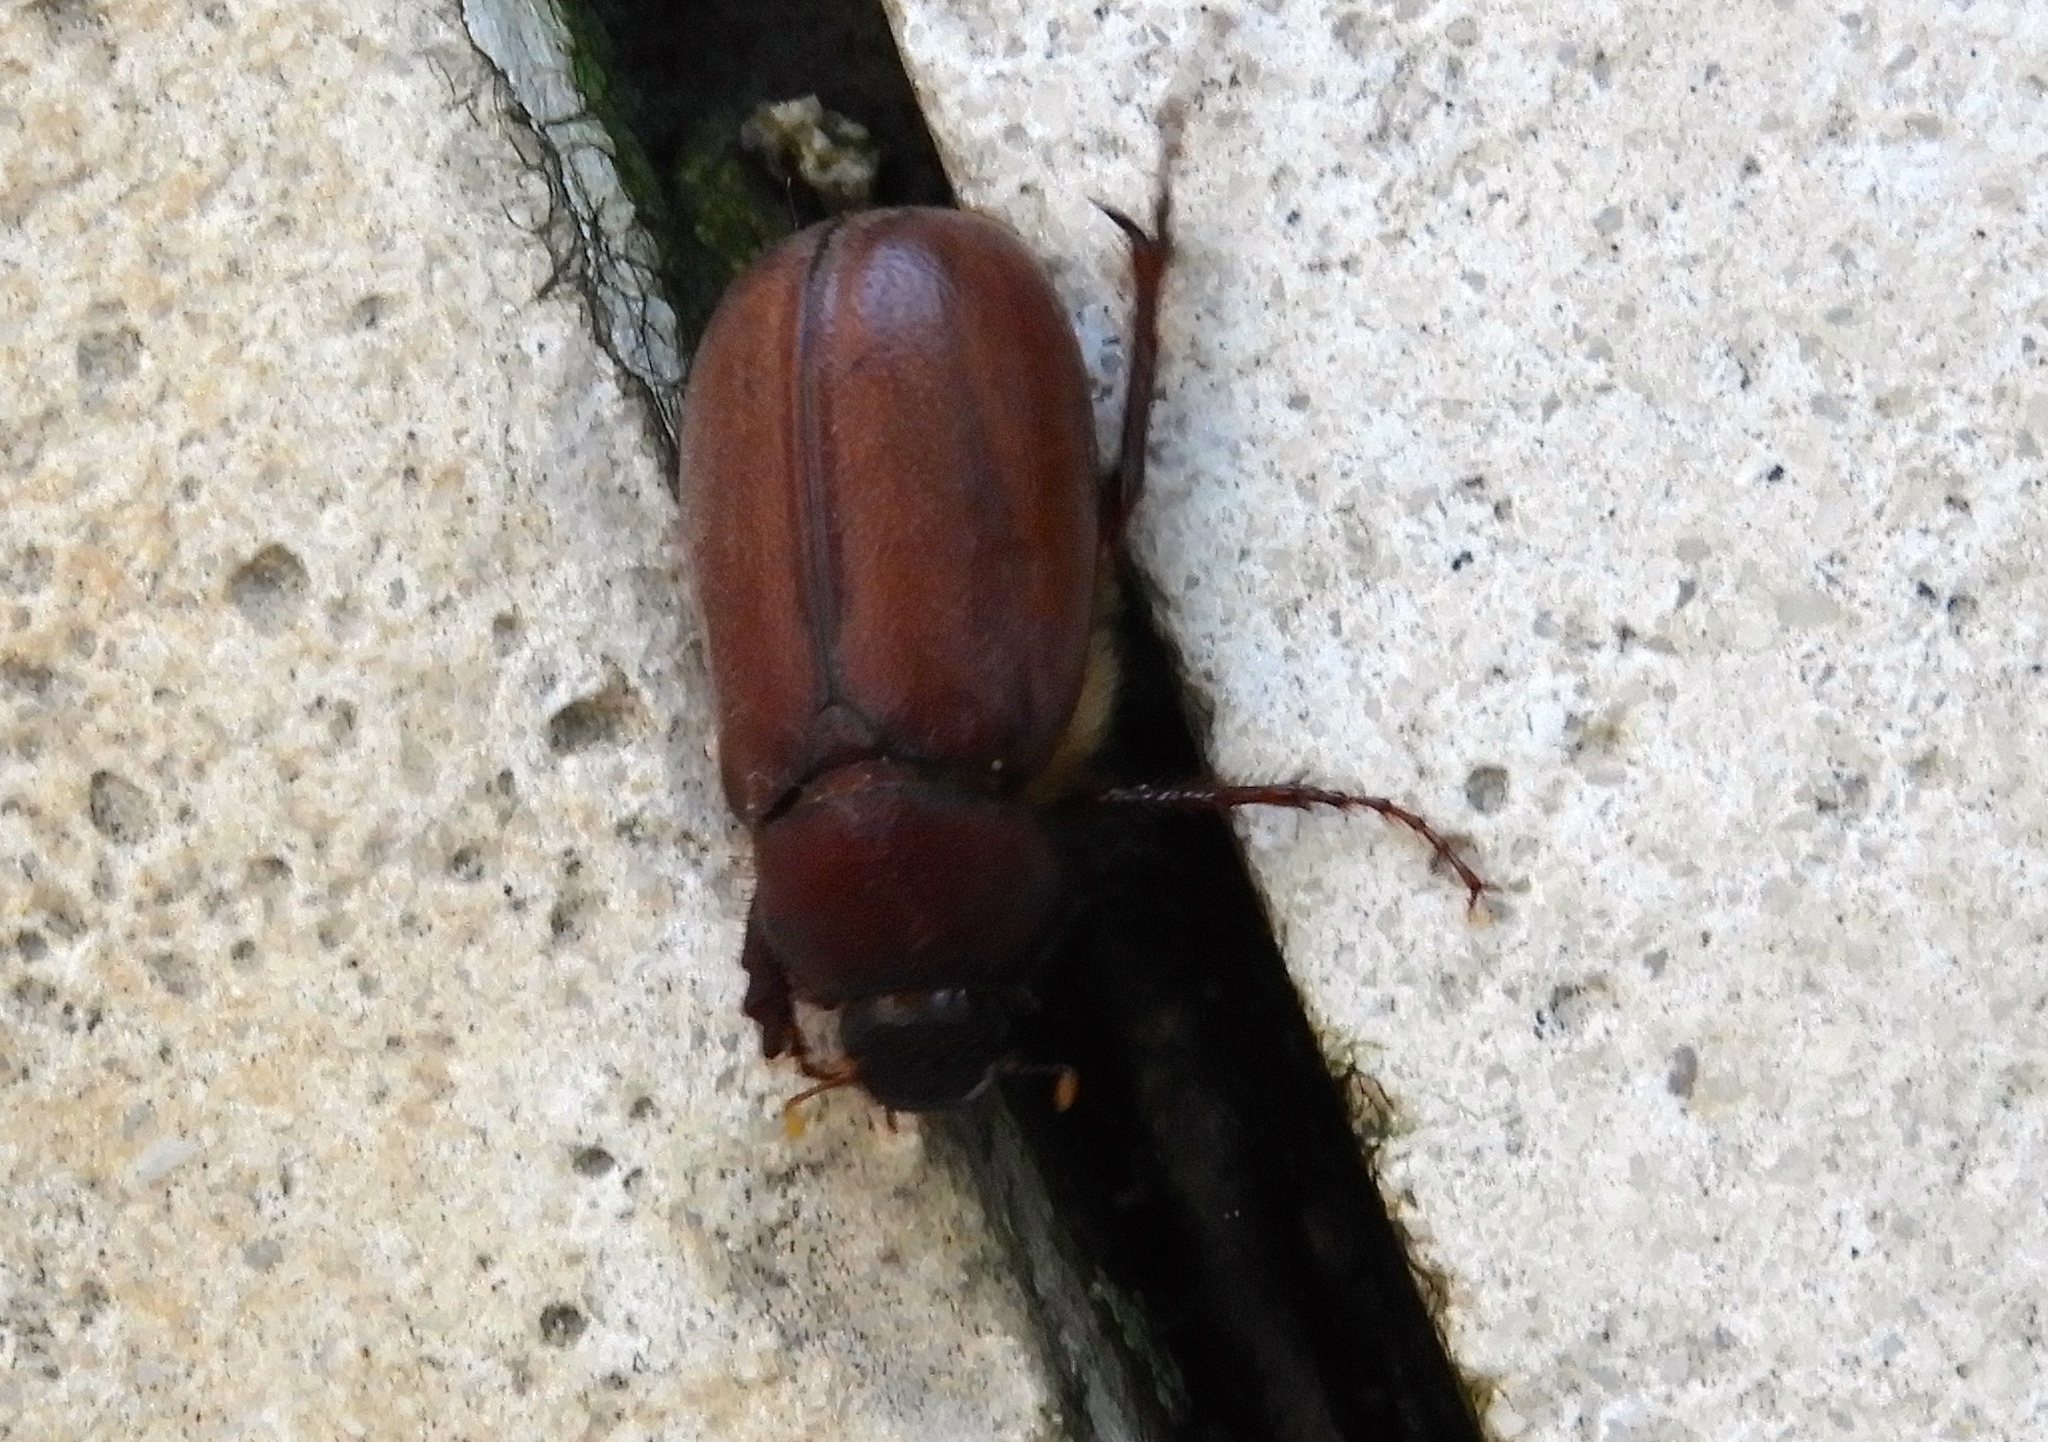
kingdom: Animalia
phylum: Arthropoda
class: Insecta
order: Coleoptera
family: Scarabaeidae
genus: Phyllophaga
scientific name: Phyllophaga opaca
